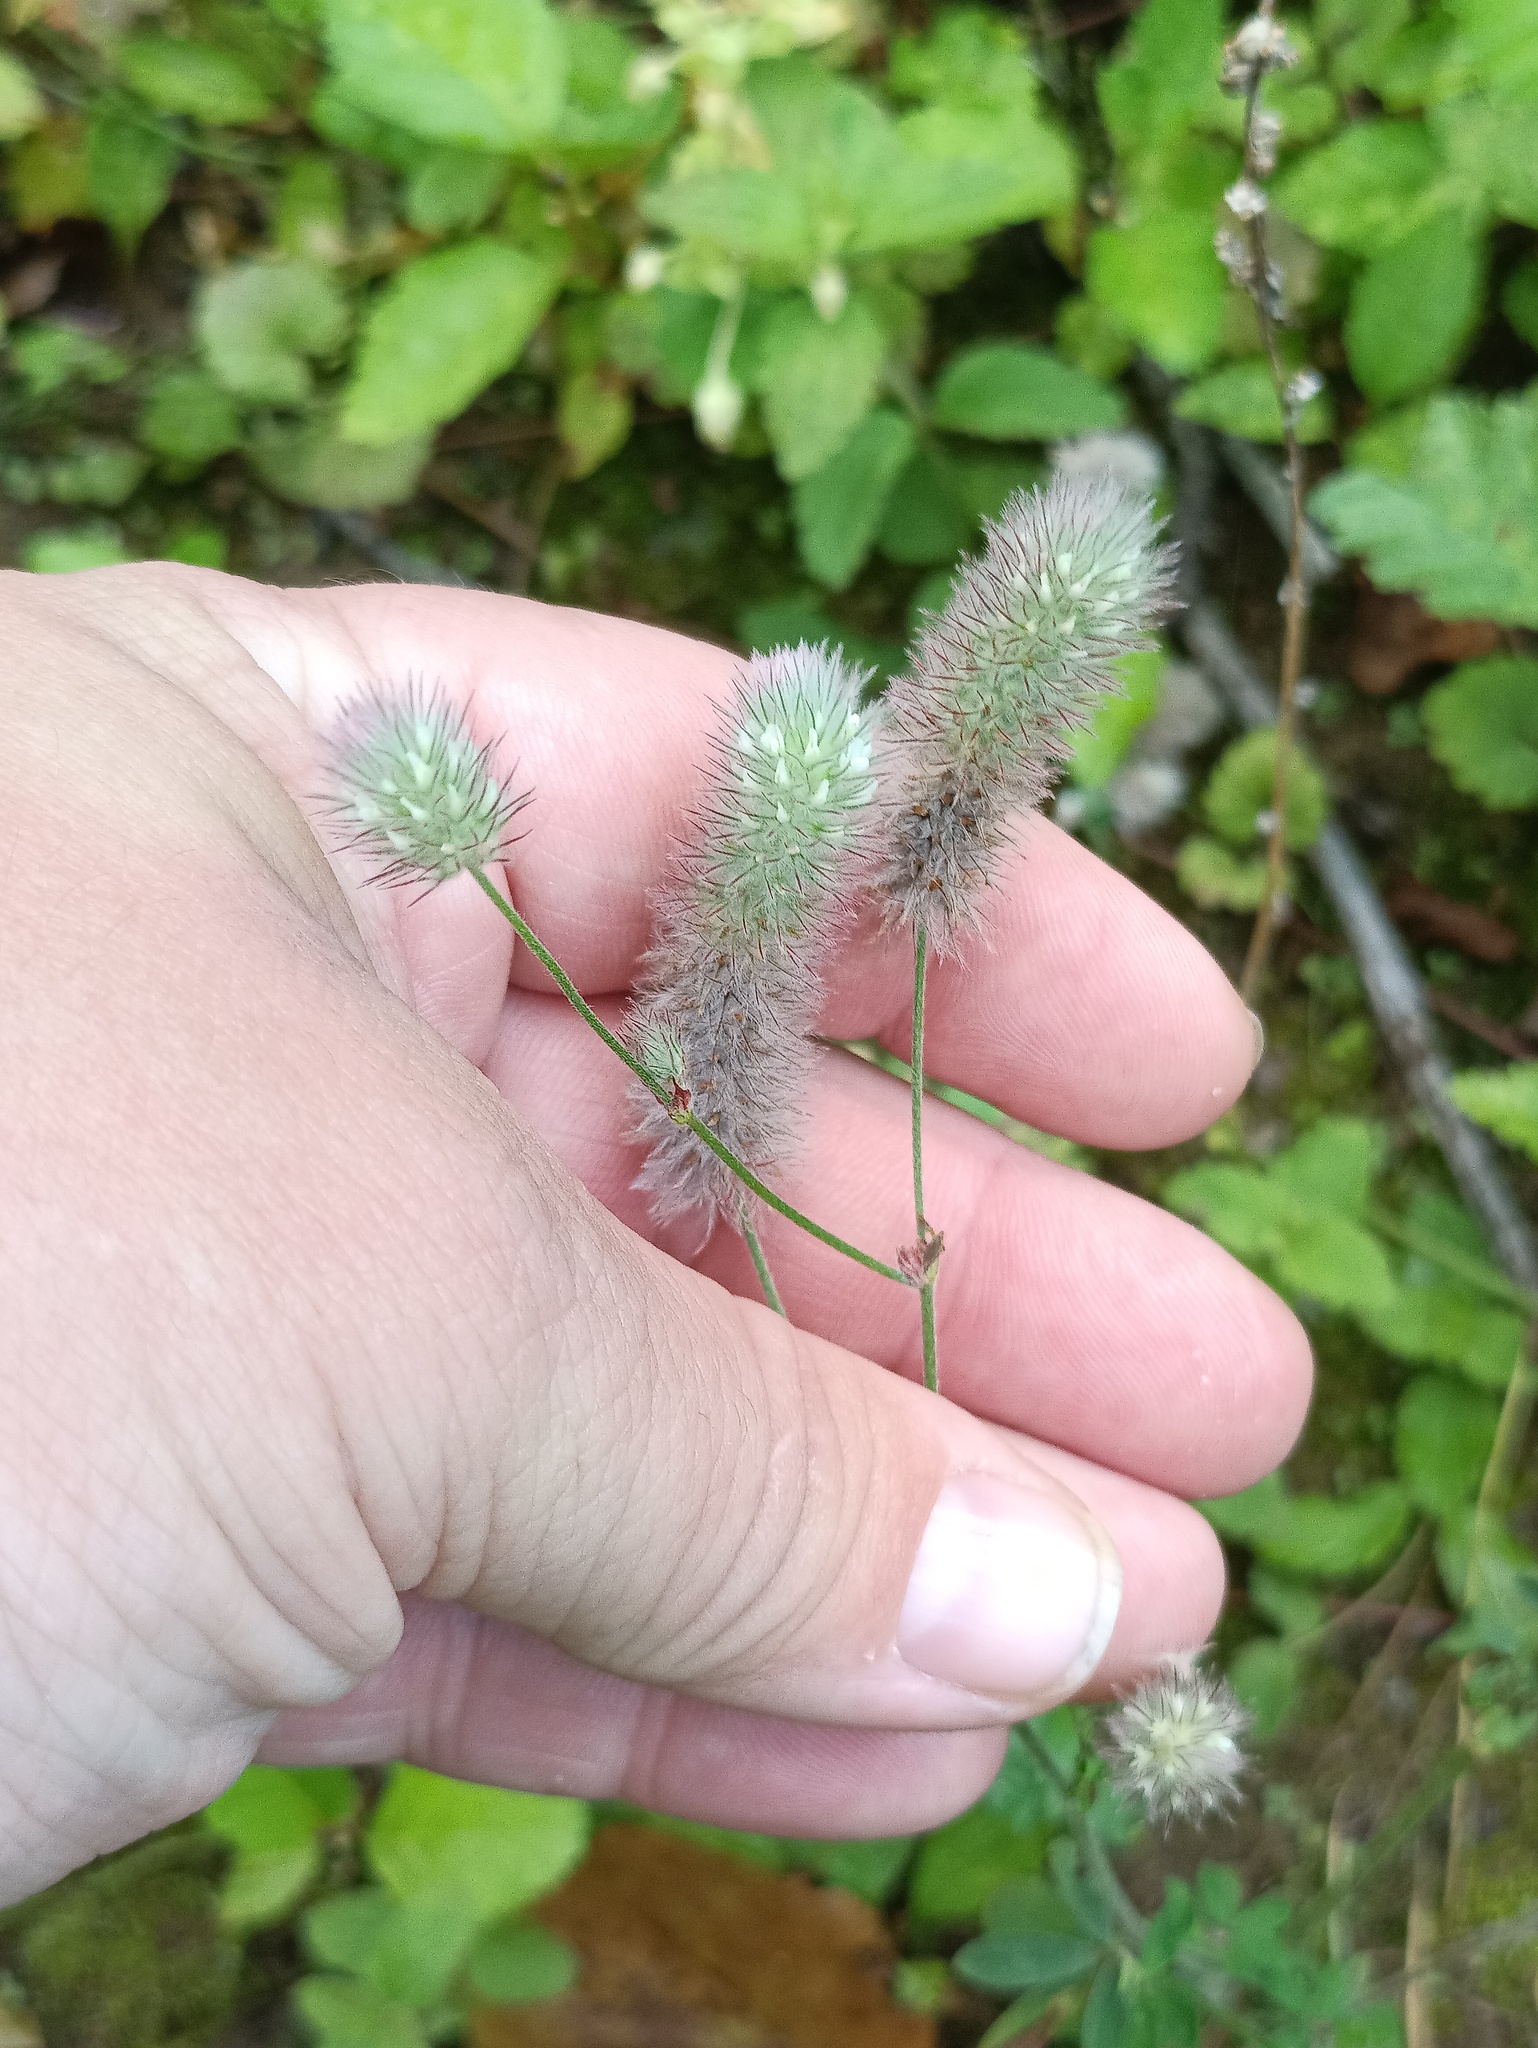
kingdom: Plantae
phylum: Tracheophyta
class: Magnoliopsida
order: Fabales
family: Fabaceae
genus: Trifolium
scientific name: Trifolium arvense
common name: Hare's-foot clover
